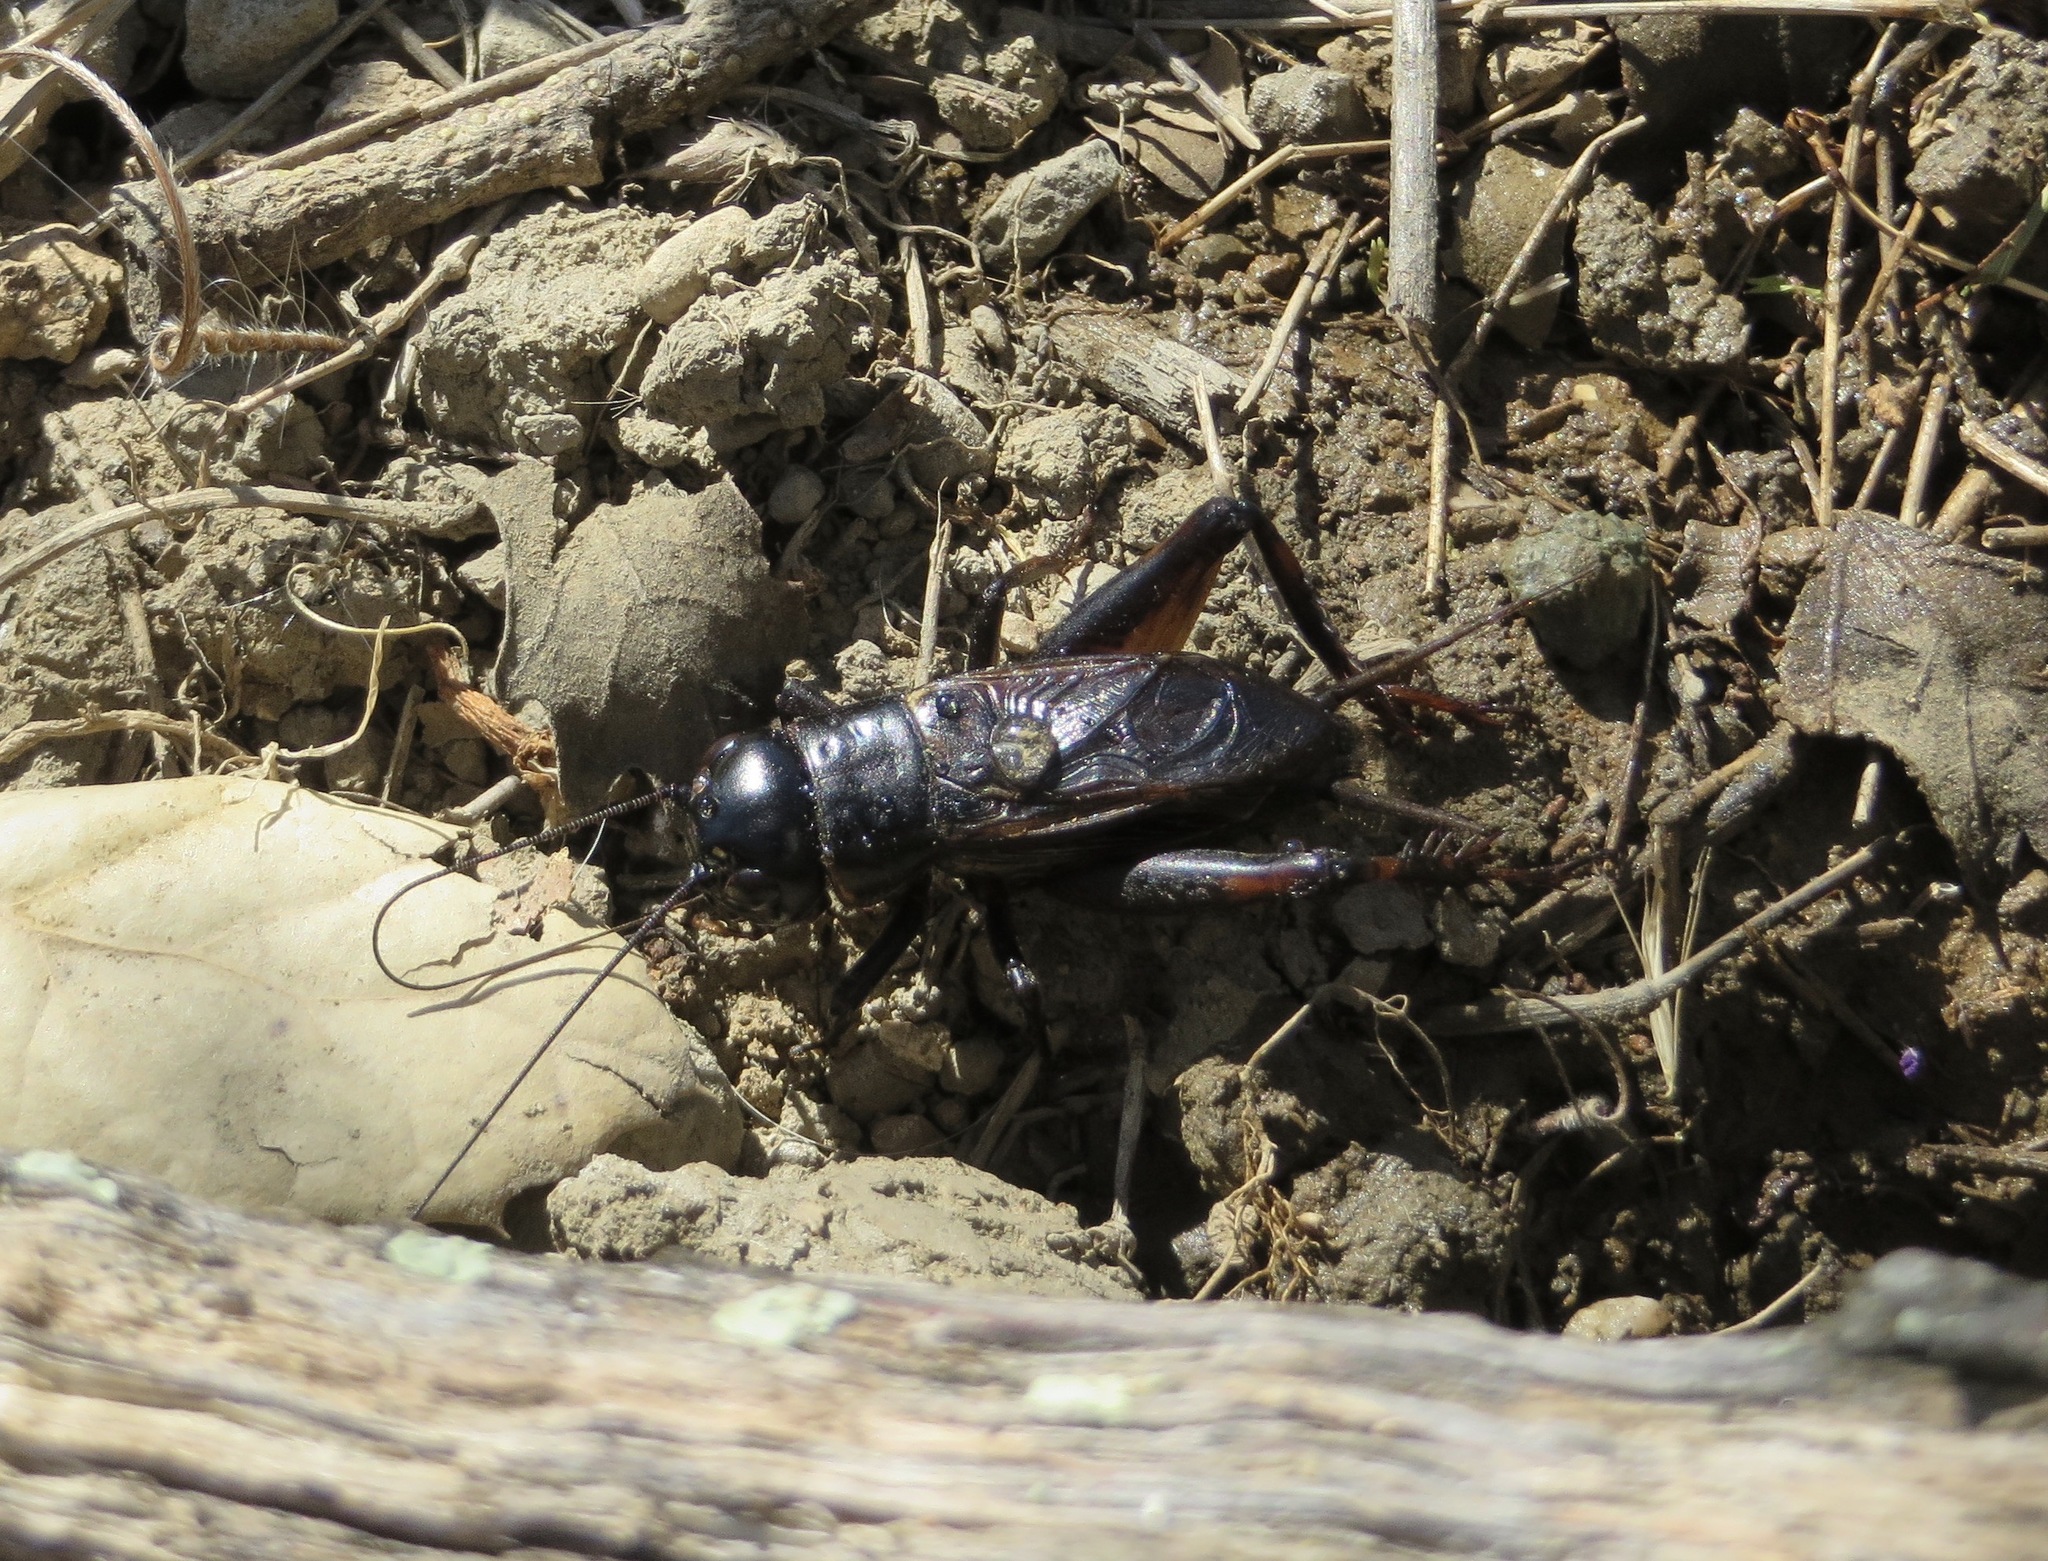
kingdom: Animalia
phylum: Arthropoda
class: Insecta
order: Orthoptera
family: Gryllidae
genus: Gryllus
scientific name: Gryllus
